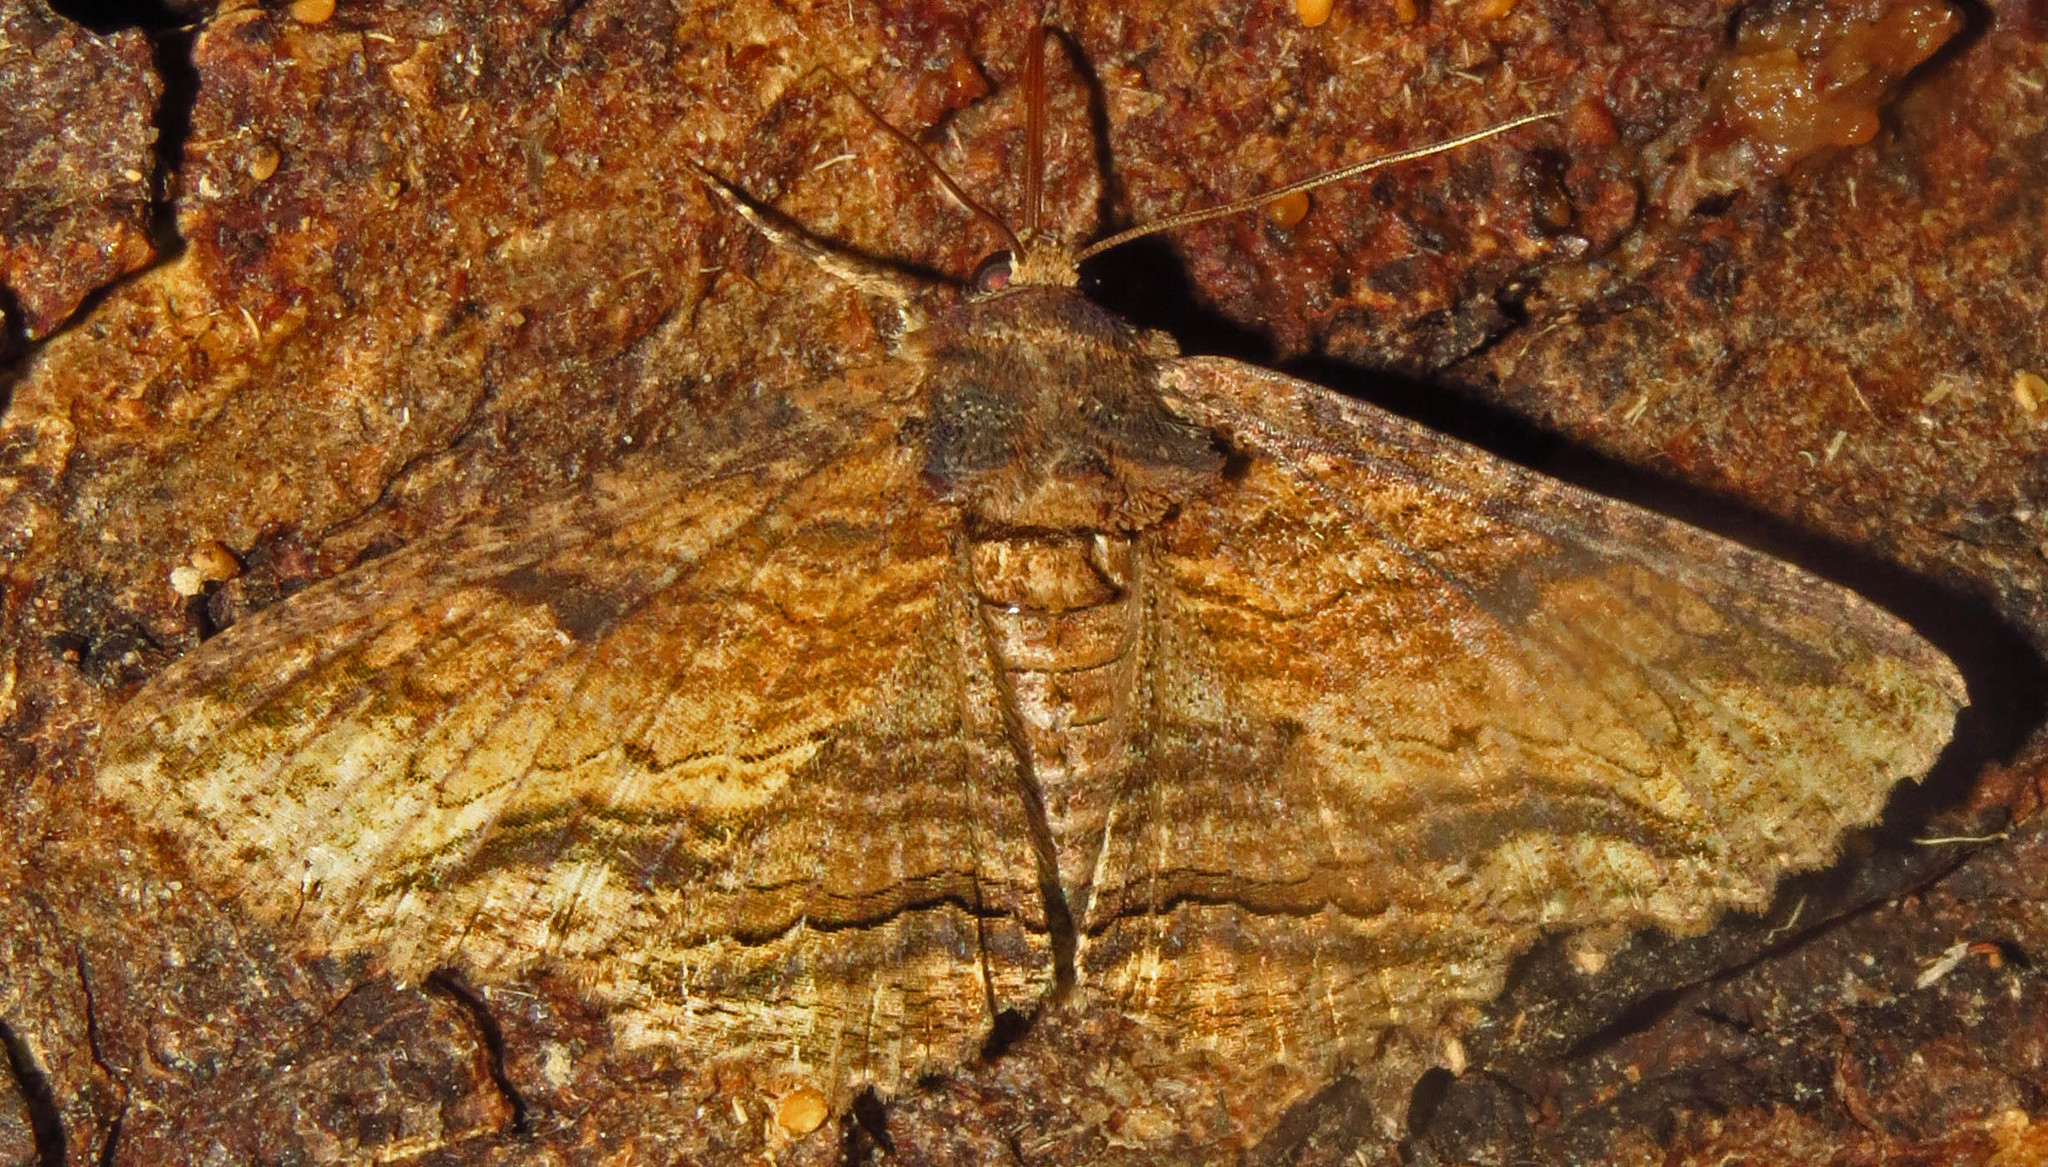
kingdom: Animalia
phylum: Arthropoda
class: Insecta
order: Lepidoptera
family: Erebidae
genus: Zale
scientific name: Zale lunata
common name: Lunate zale moth
